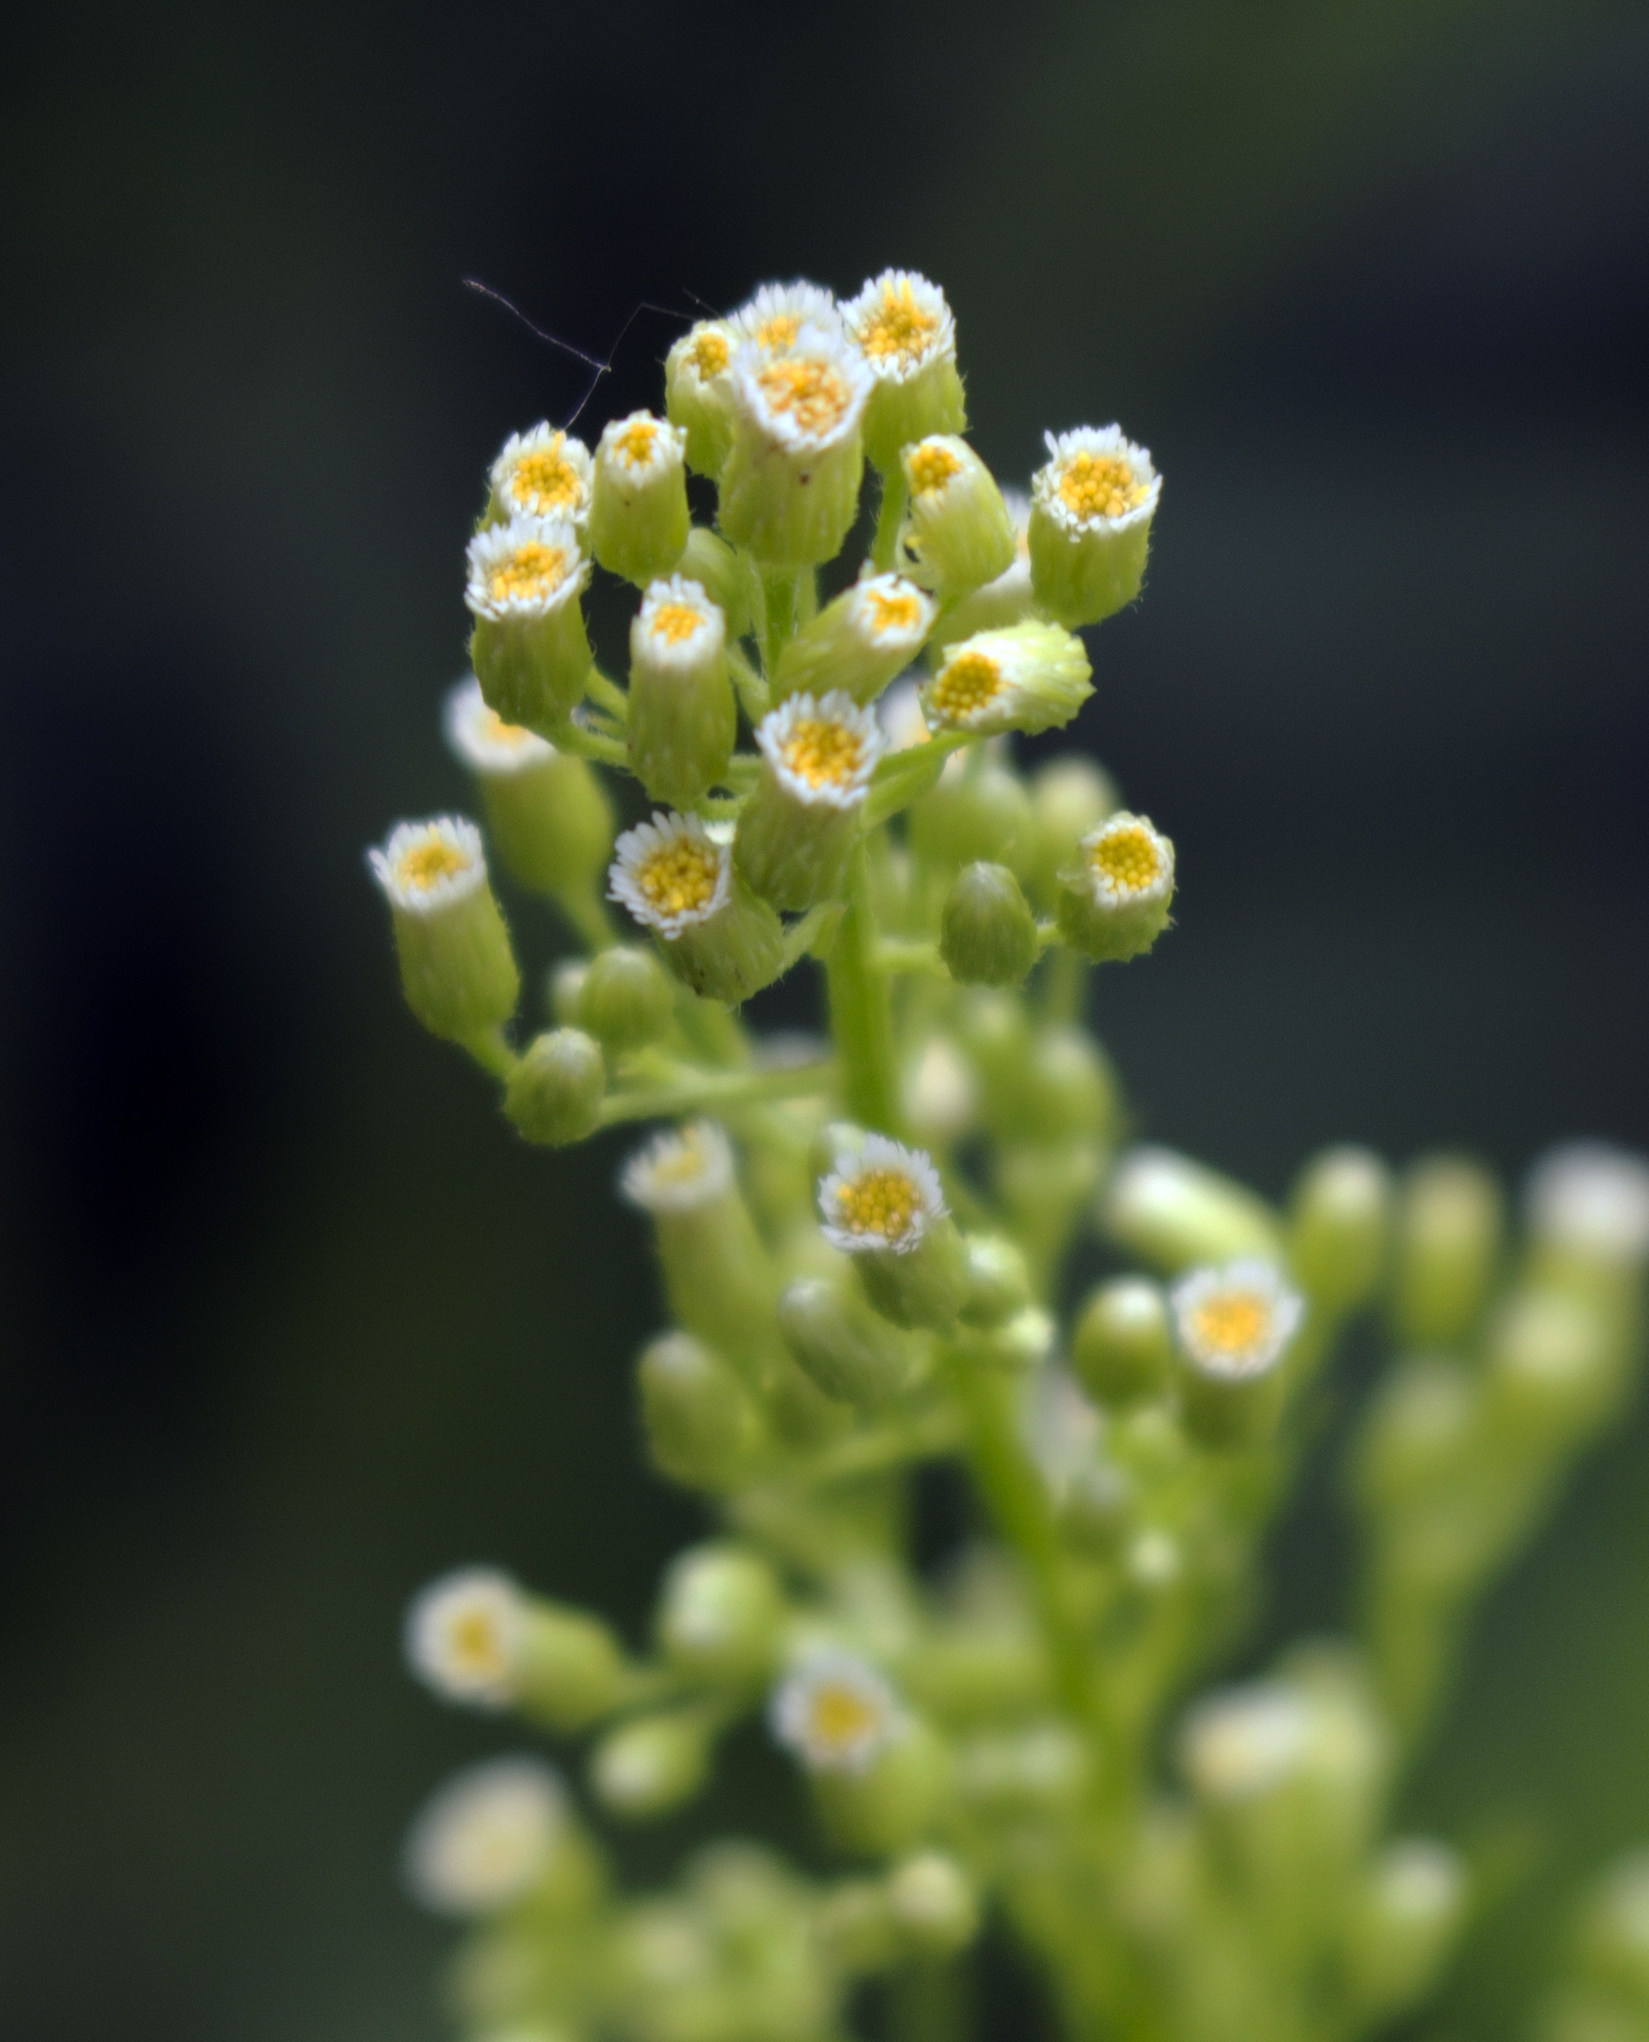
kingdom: Plantae
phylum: Tracheophyta
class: Magnoliopsida
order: Asterales
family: Asteraceae
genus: Erigeron
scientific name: Erigeron canadensis
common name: Canadian fleabane
